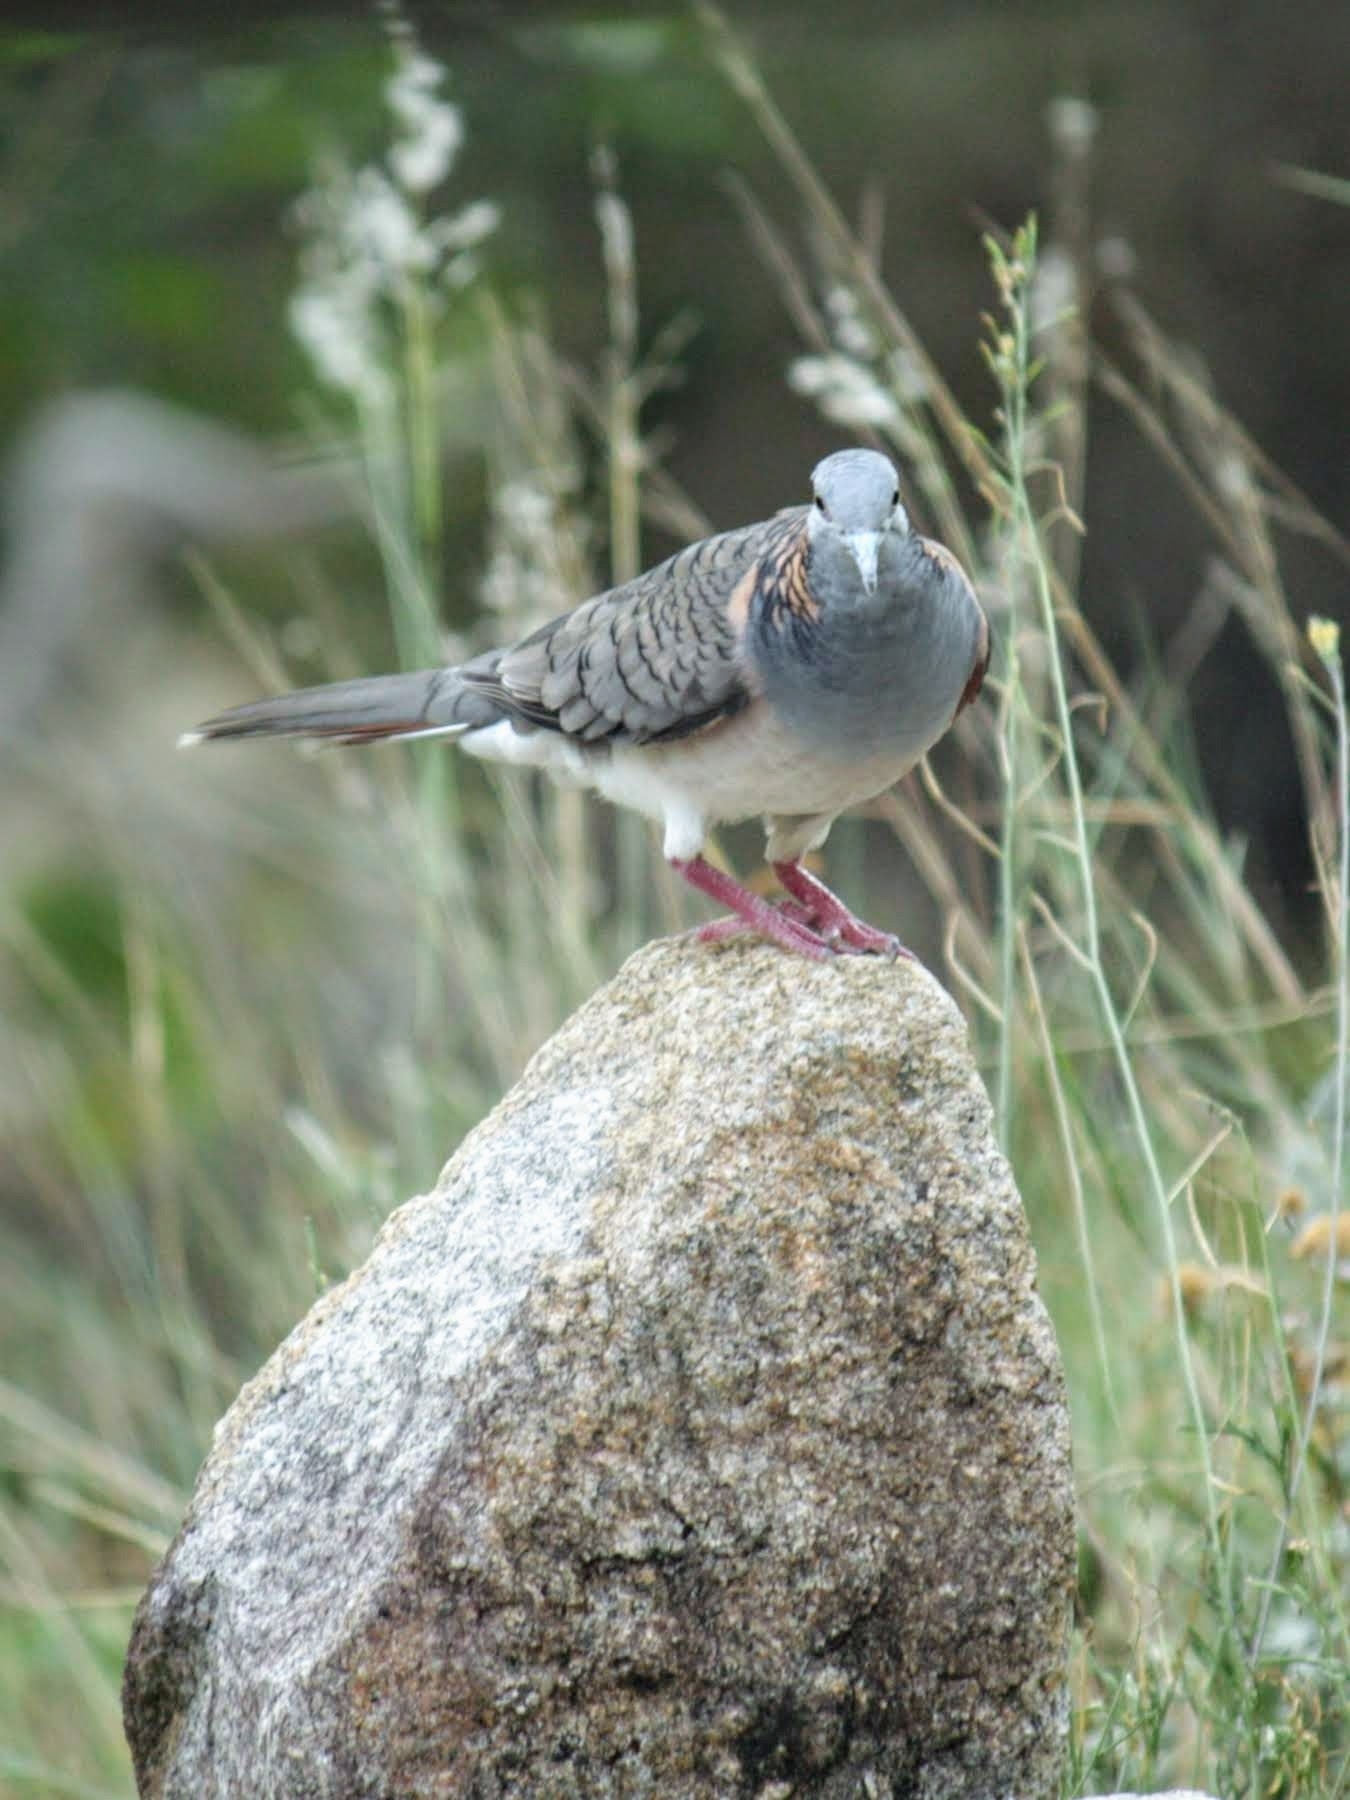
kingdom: Animalia
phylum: Chordata
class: Aves
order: Columbiformes
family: Columbidae
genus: Geopelia
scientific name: Geopelia humeralis
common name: Bar-shouldered dove
